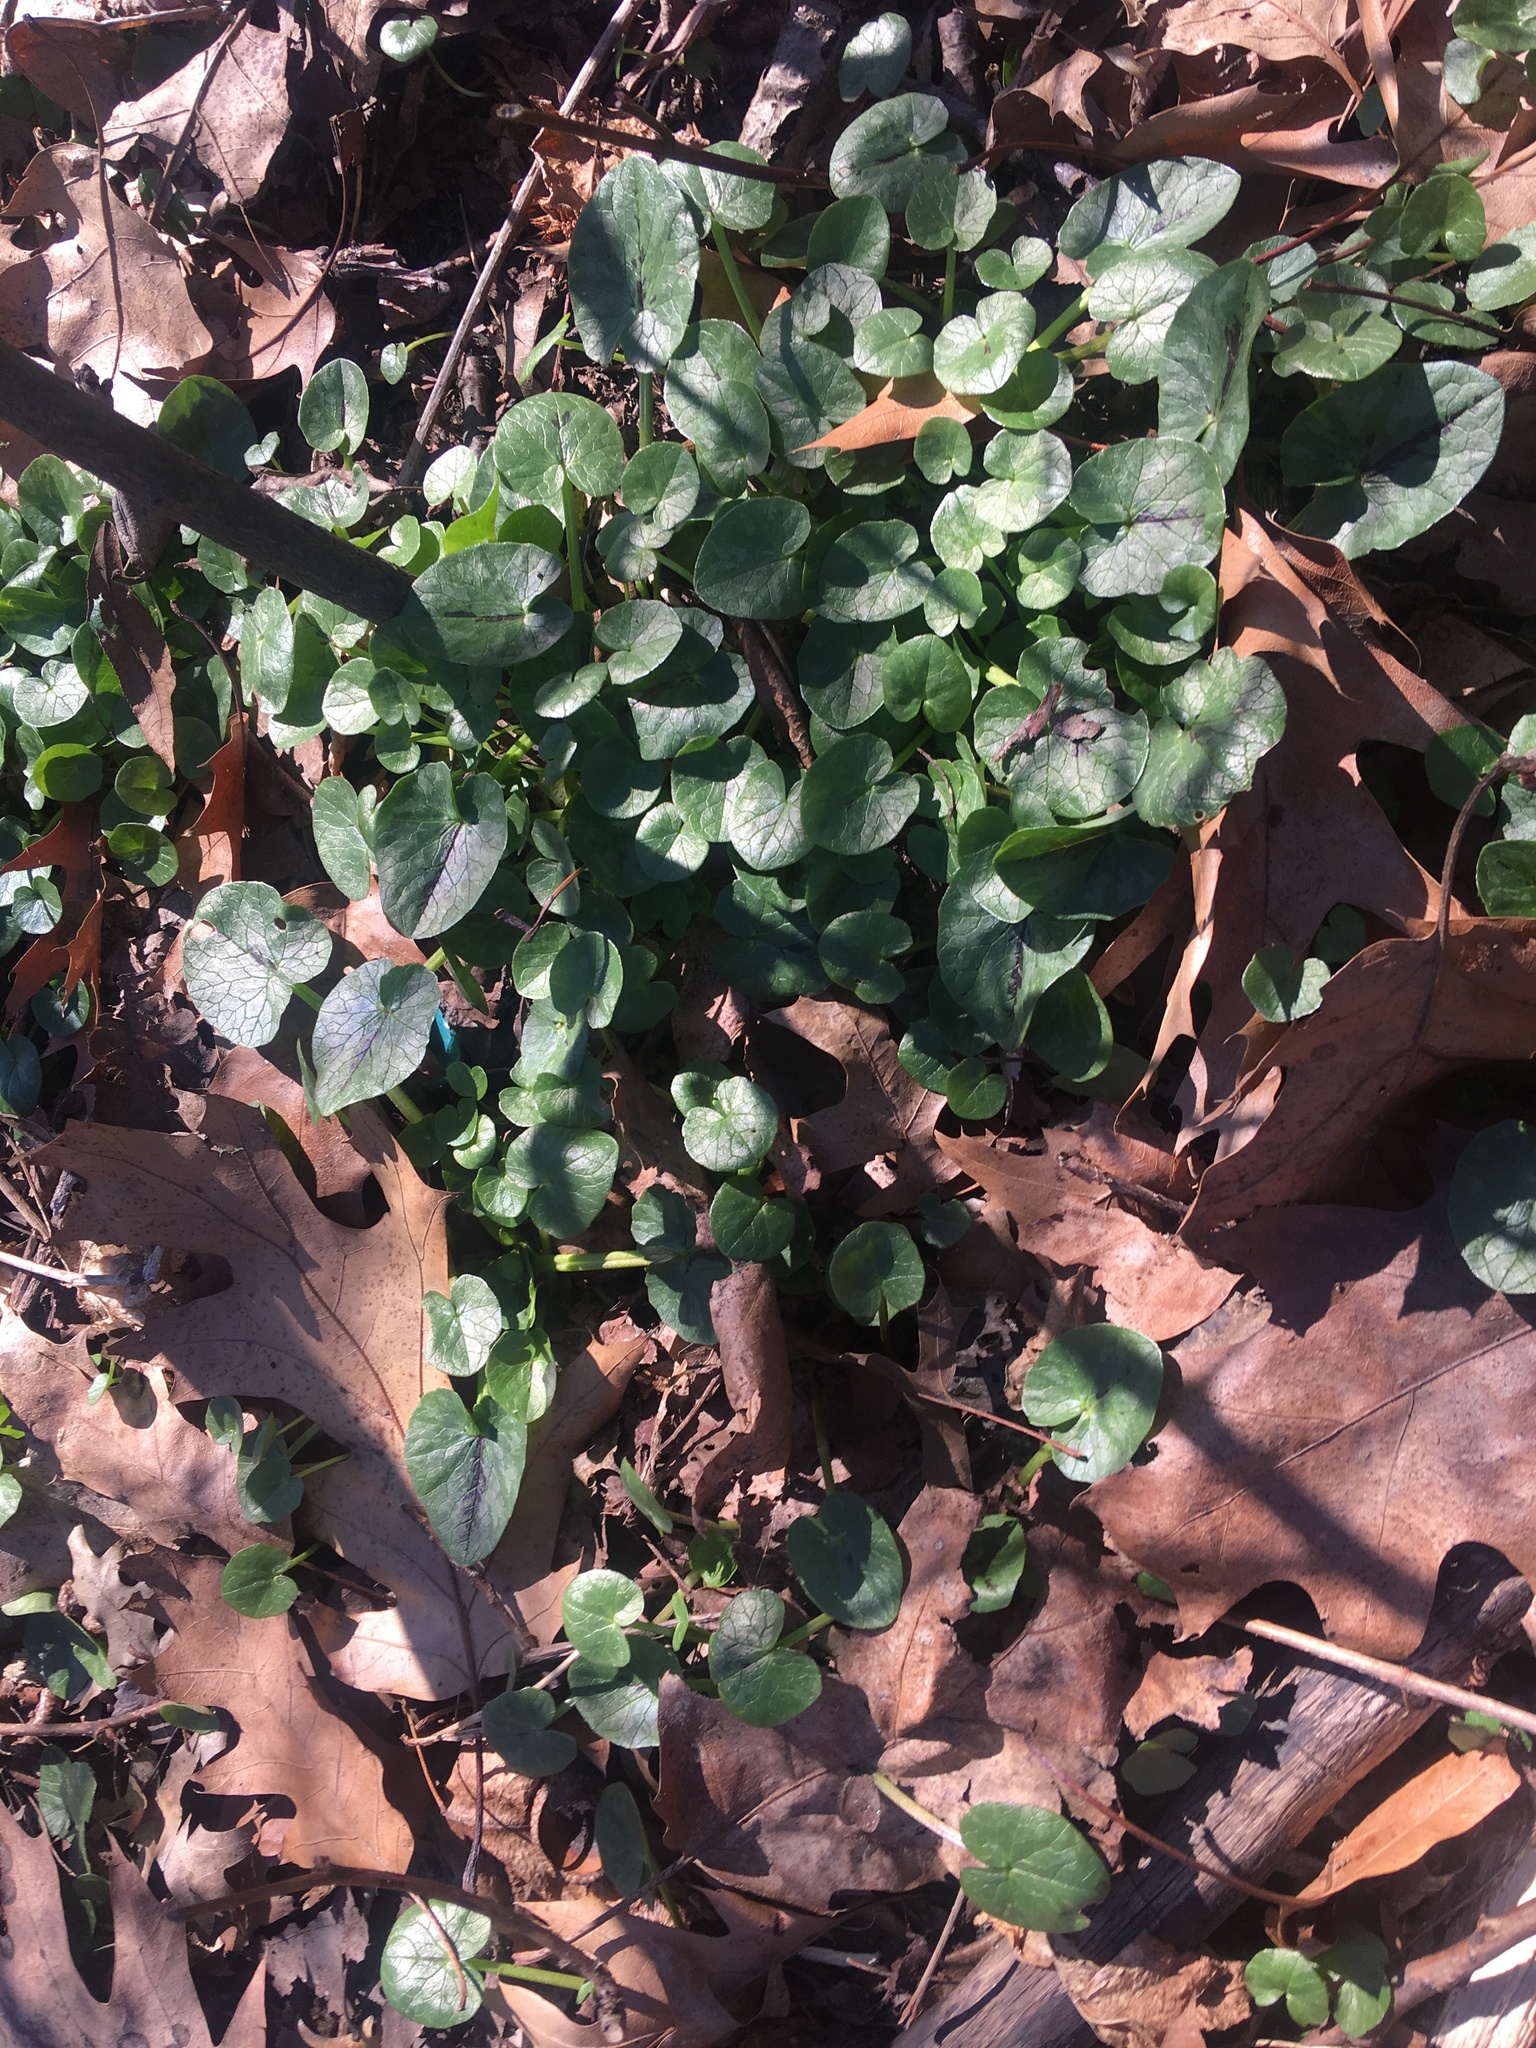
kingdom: Plantae
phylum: Tracheophyta
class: Magnoliopsida
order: Ranunculales
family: Ranunculaceae
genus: Ficaria
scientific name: Ficaria verna
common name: Lesser celandine
